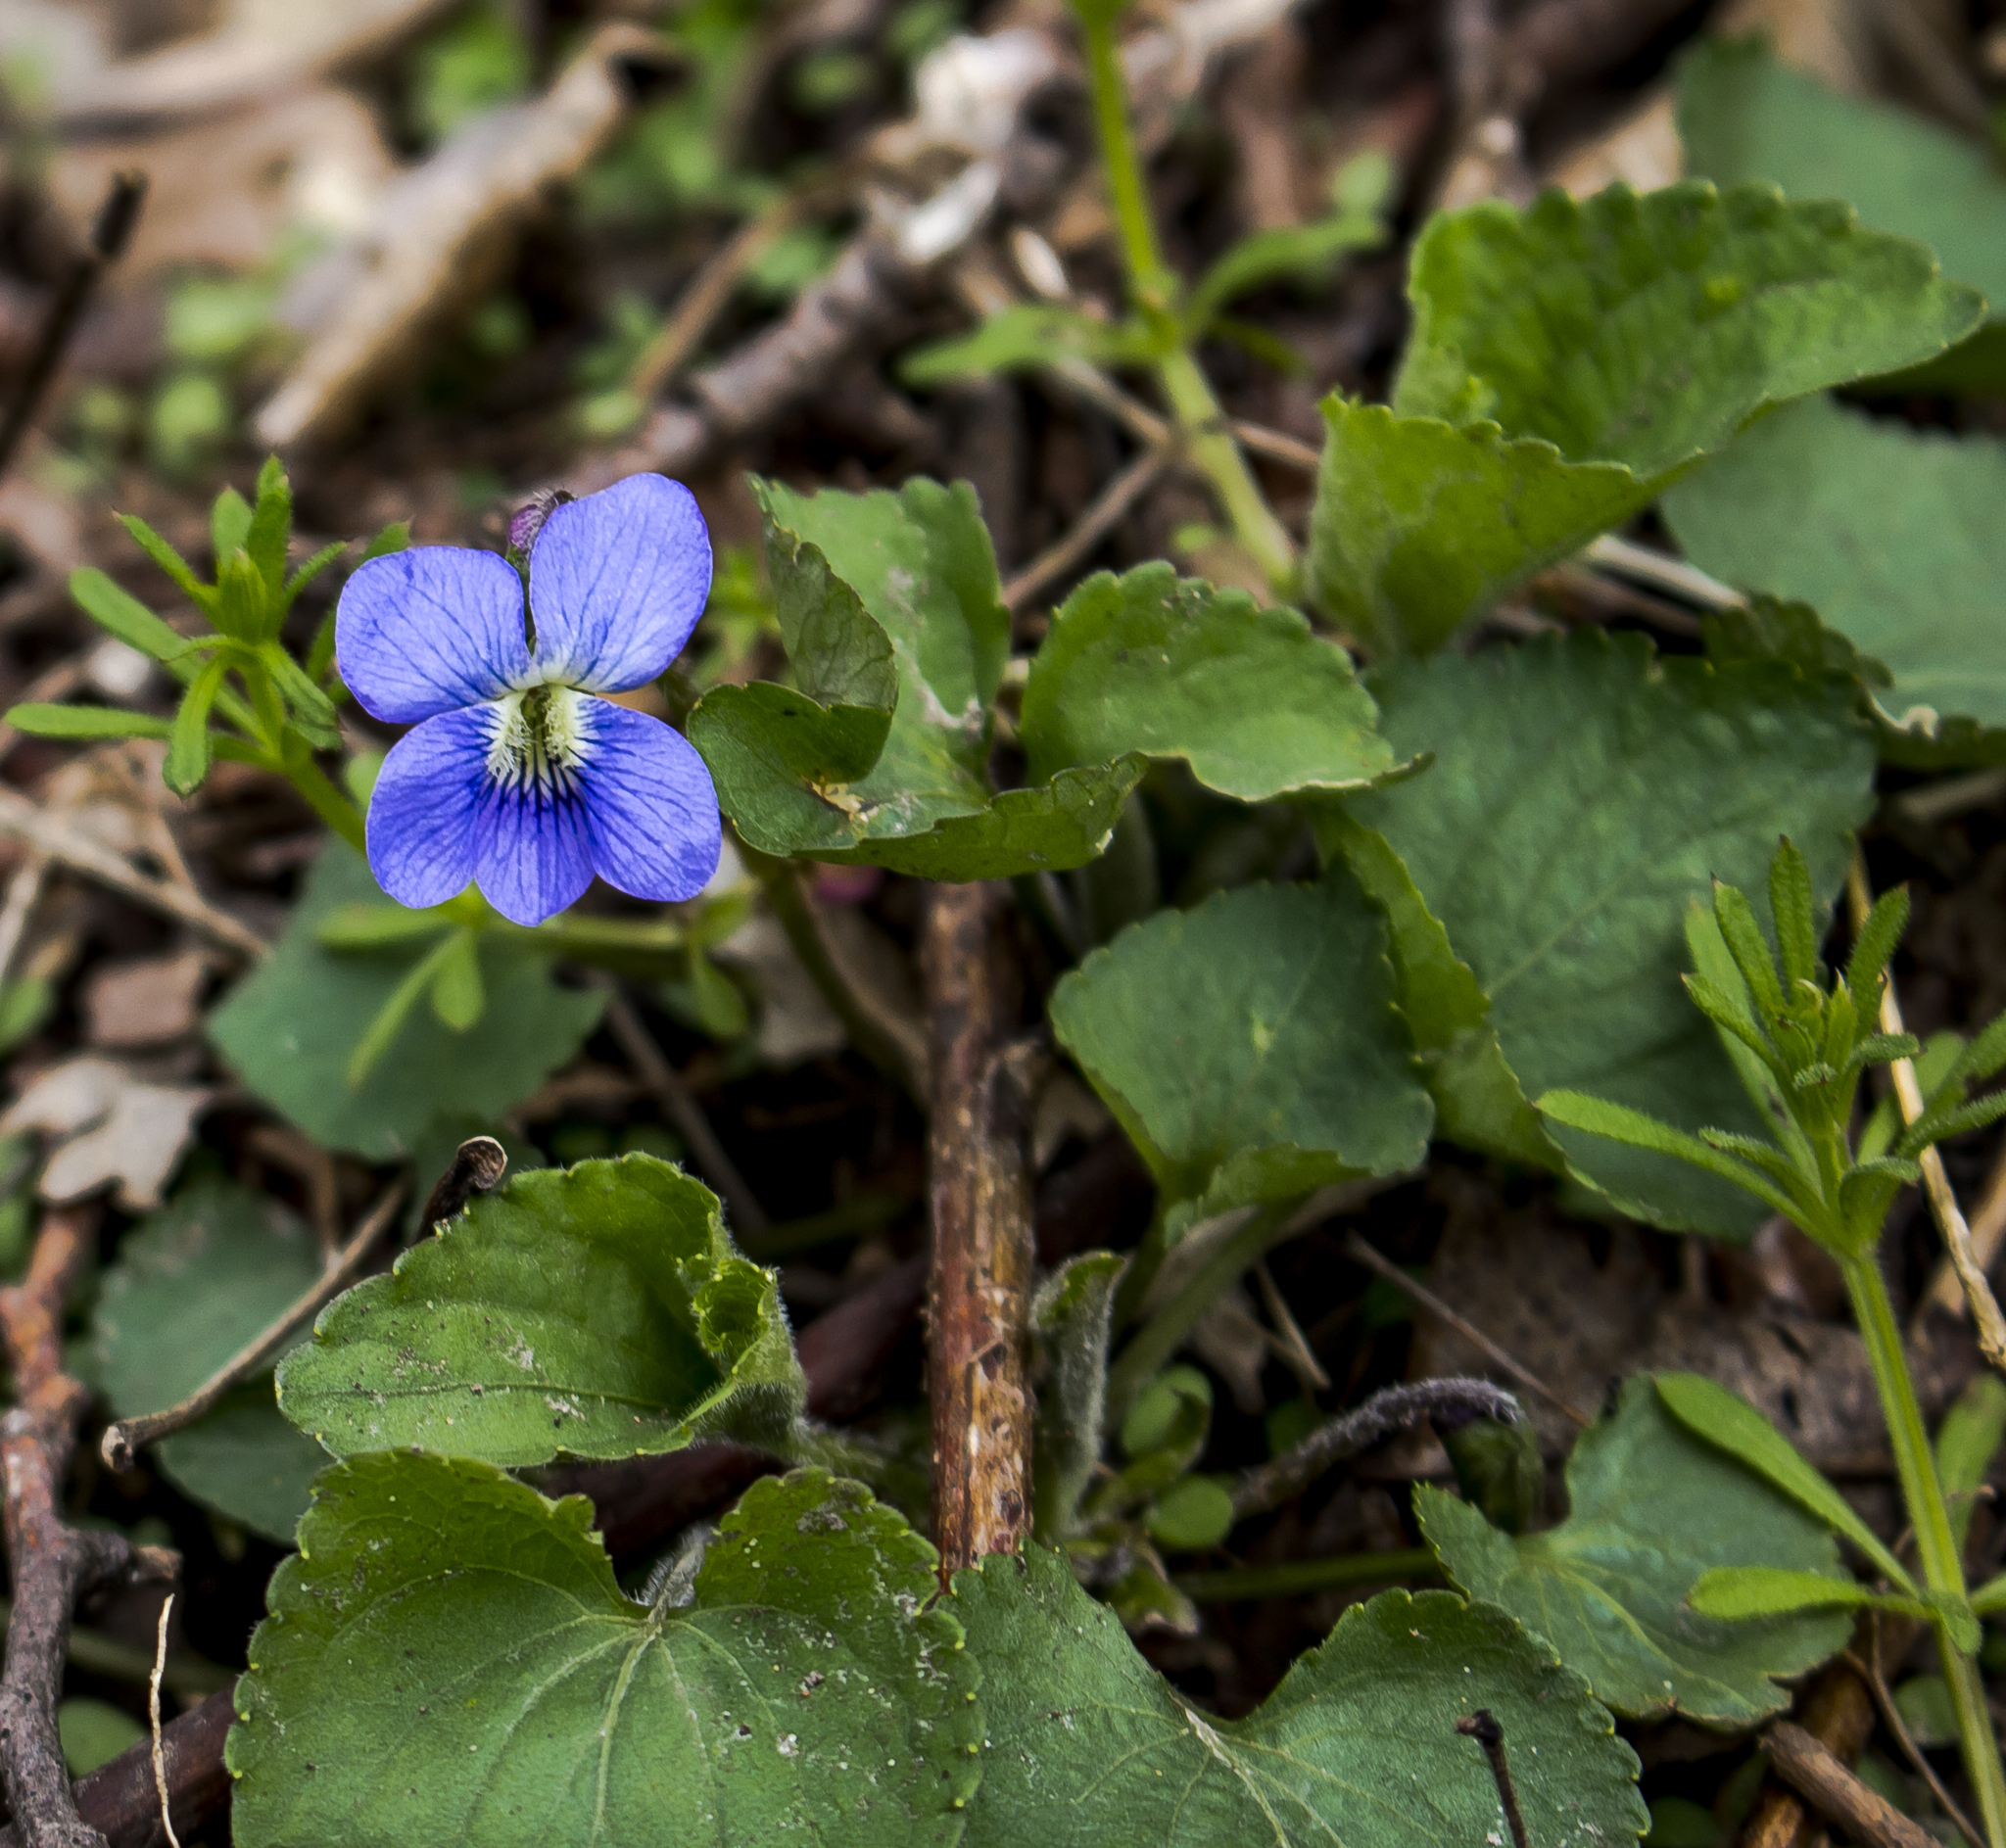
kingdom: Plantae
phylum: Tracheophyta
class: Magnoliopsida
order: Malpighiales
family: Violaceae
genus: Viola
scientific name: Viola sororia
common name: Dooryard violet
